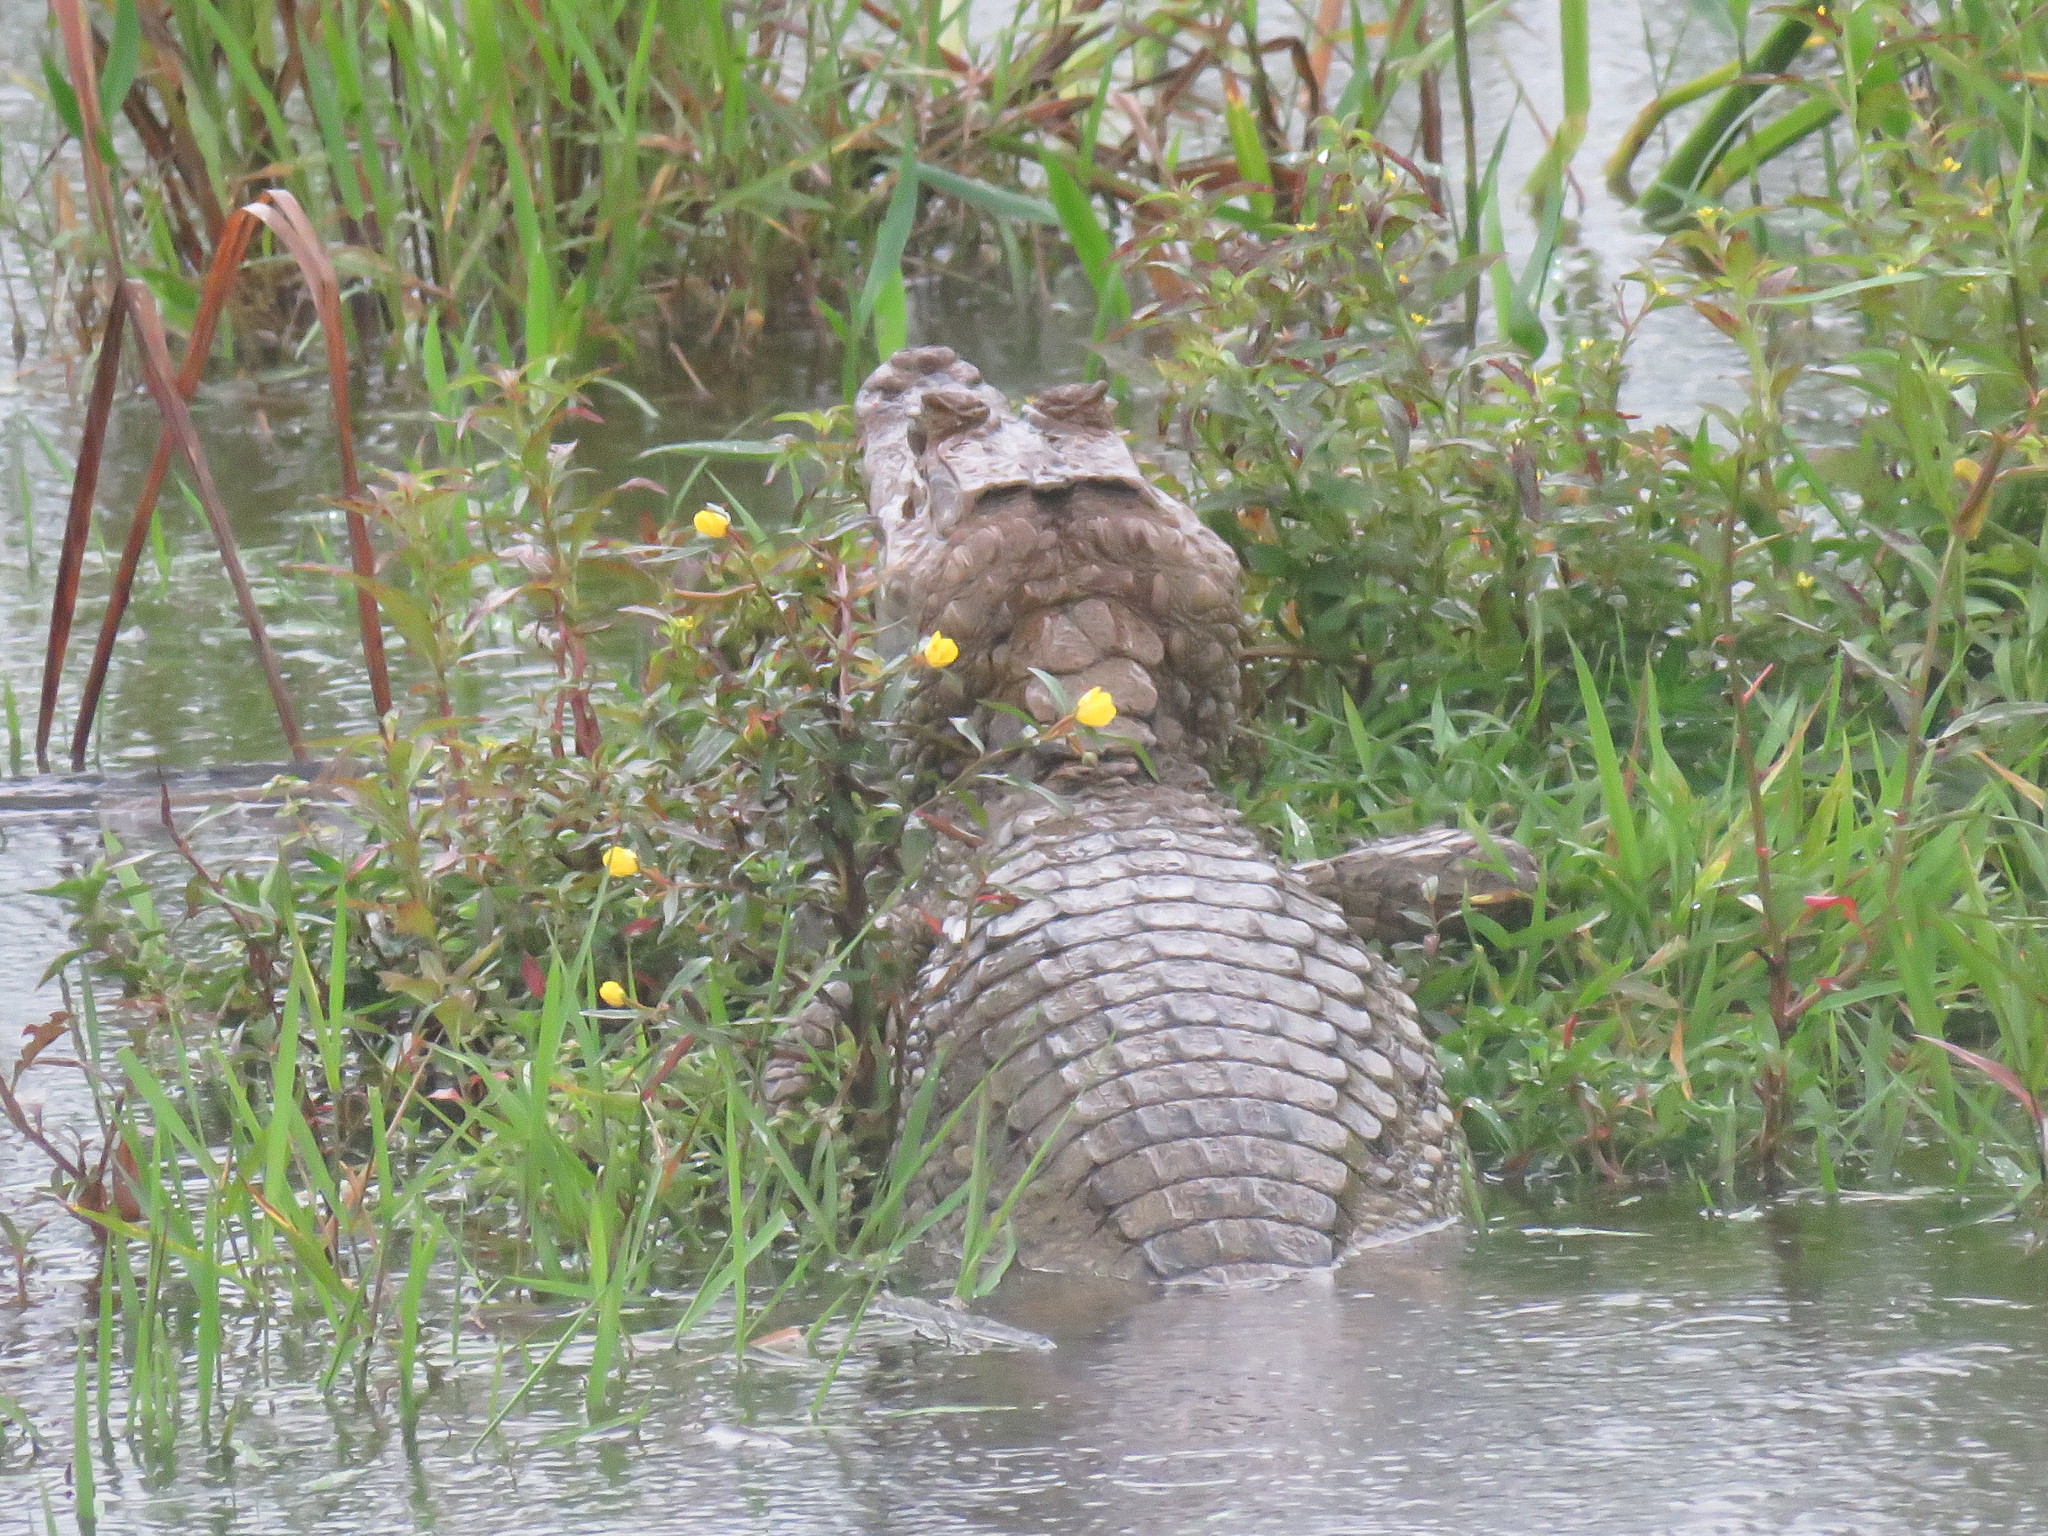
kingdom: Animalia
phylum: Chordata
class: Crocodylia
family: Alligatoridae
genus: Caiman
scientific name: Caiman crocodilus
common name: Common caiman
